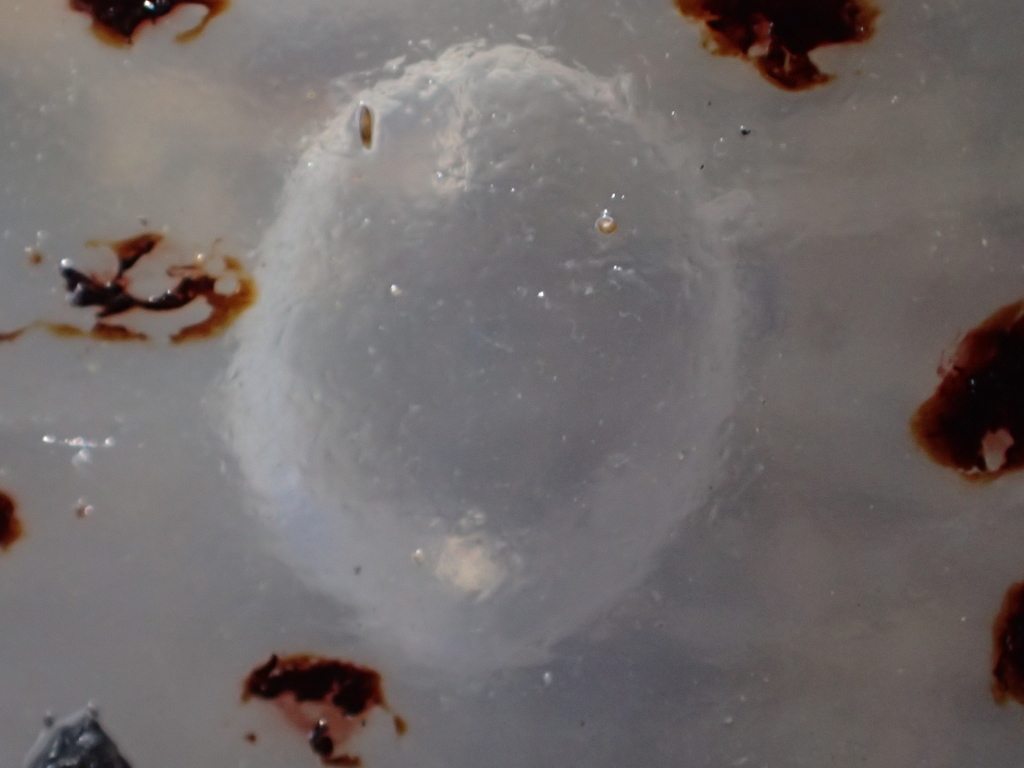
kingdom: Animalia
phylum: Cnidaria
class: Scyphozoa
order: Semaeostomeae
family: Cyaneidae
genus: Desmonema
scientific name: Desmonema gaudichaudi
